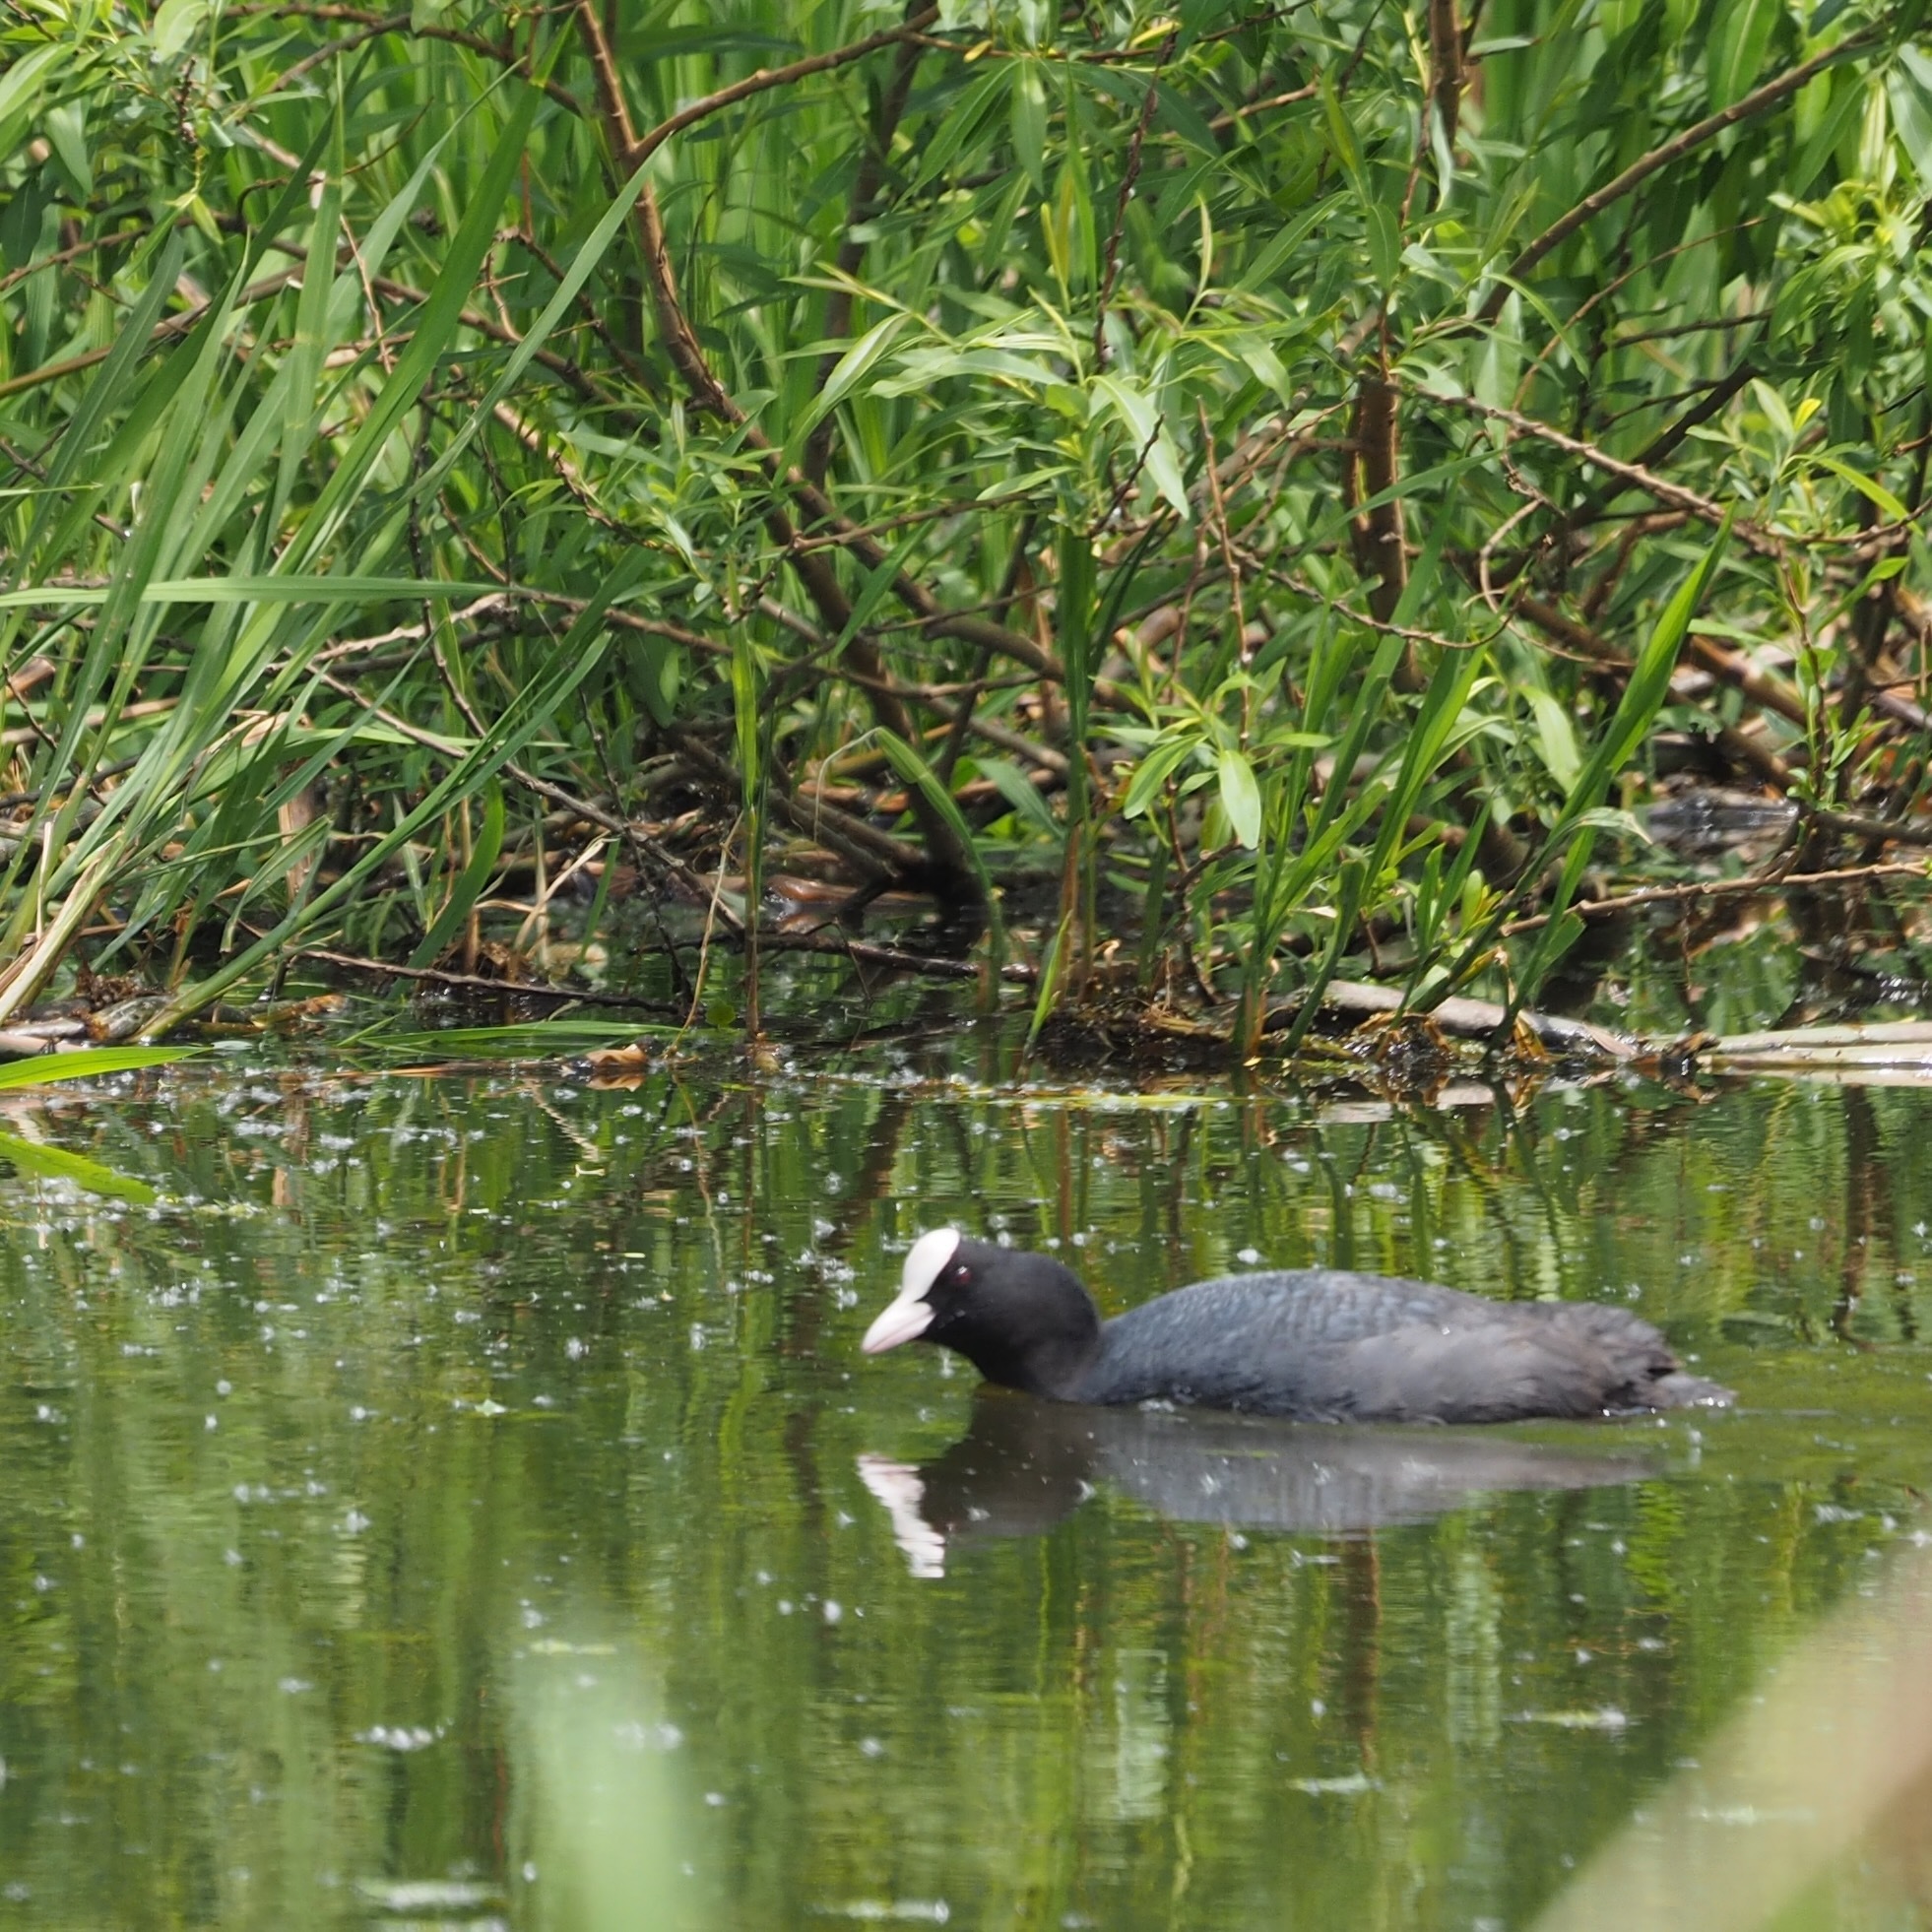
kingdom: Animalia
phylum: Chordata
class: Aves
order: Gruiformes
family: Rallidae
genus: Fulica
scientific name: Fulica atra
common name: Eurasian coot
